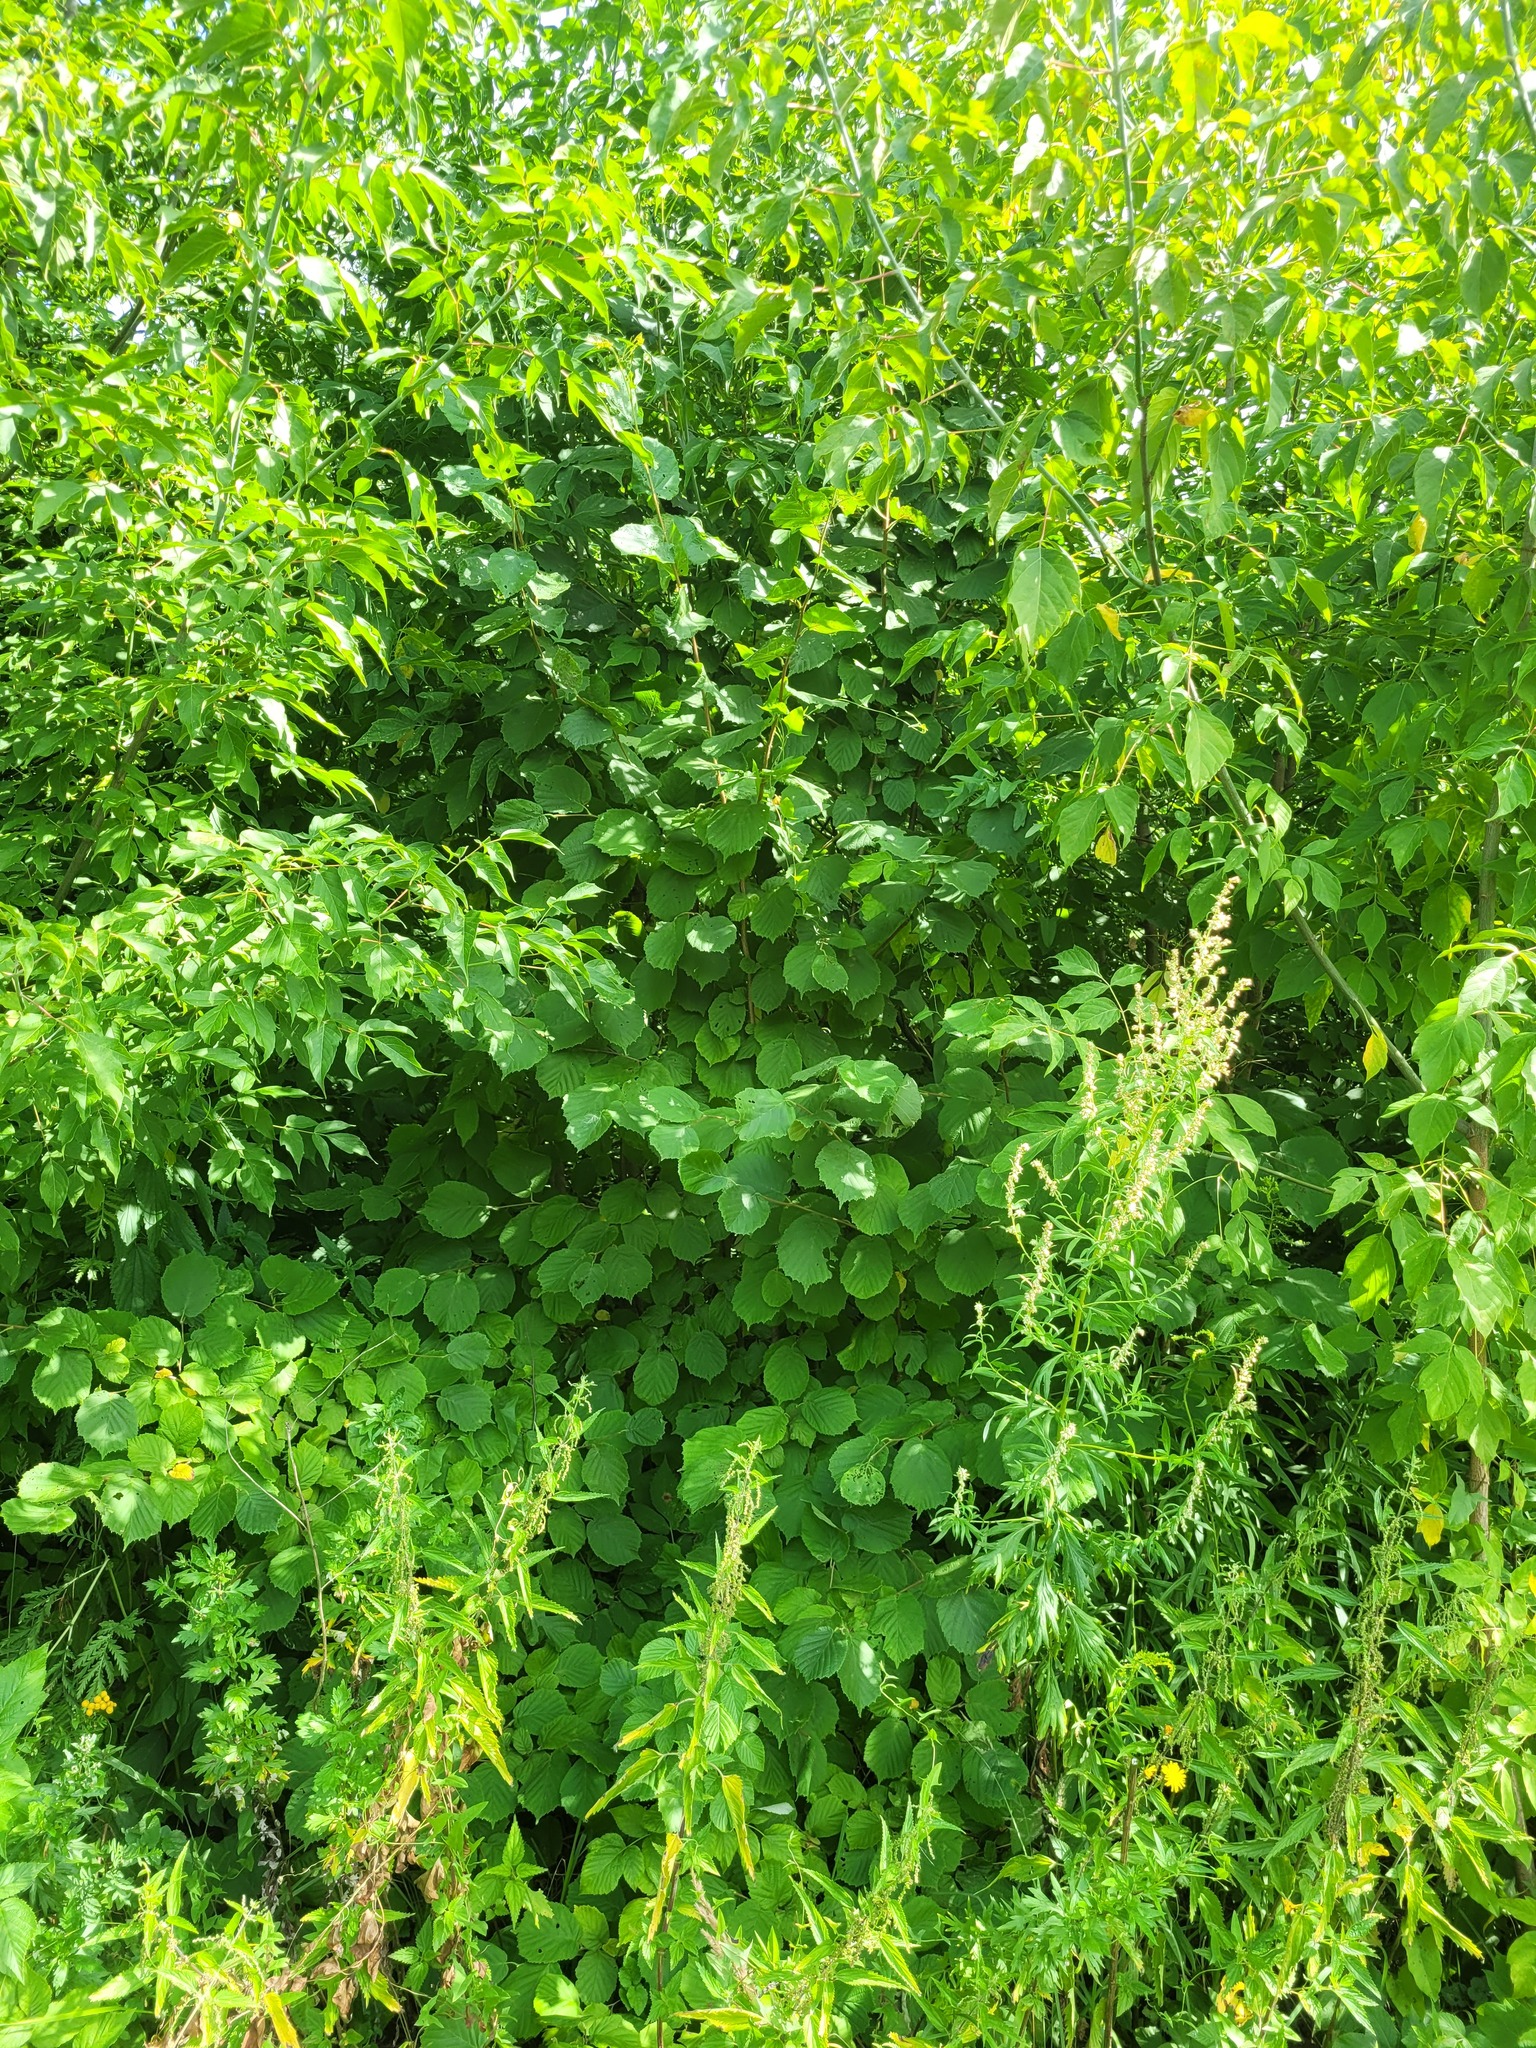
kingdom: Plantae
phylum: Tracheophyta
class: Magnoliopsida
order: Fagales
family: Betulaceae
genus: Corylus
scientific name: Corylus avellana
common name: European hazel
